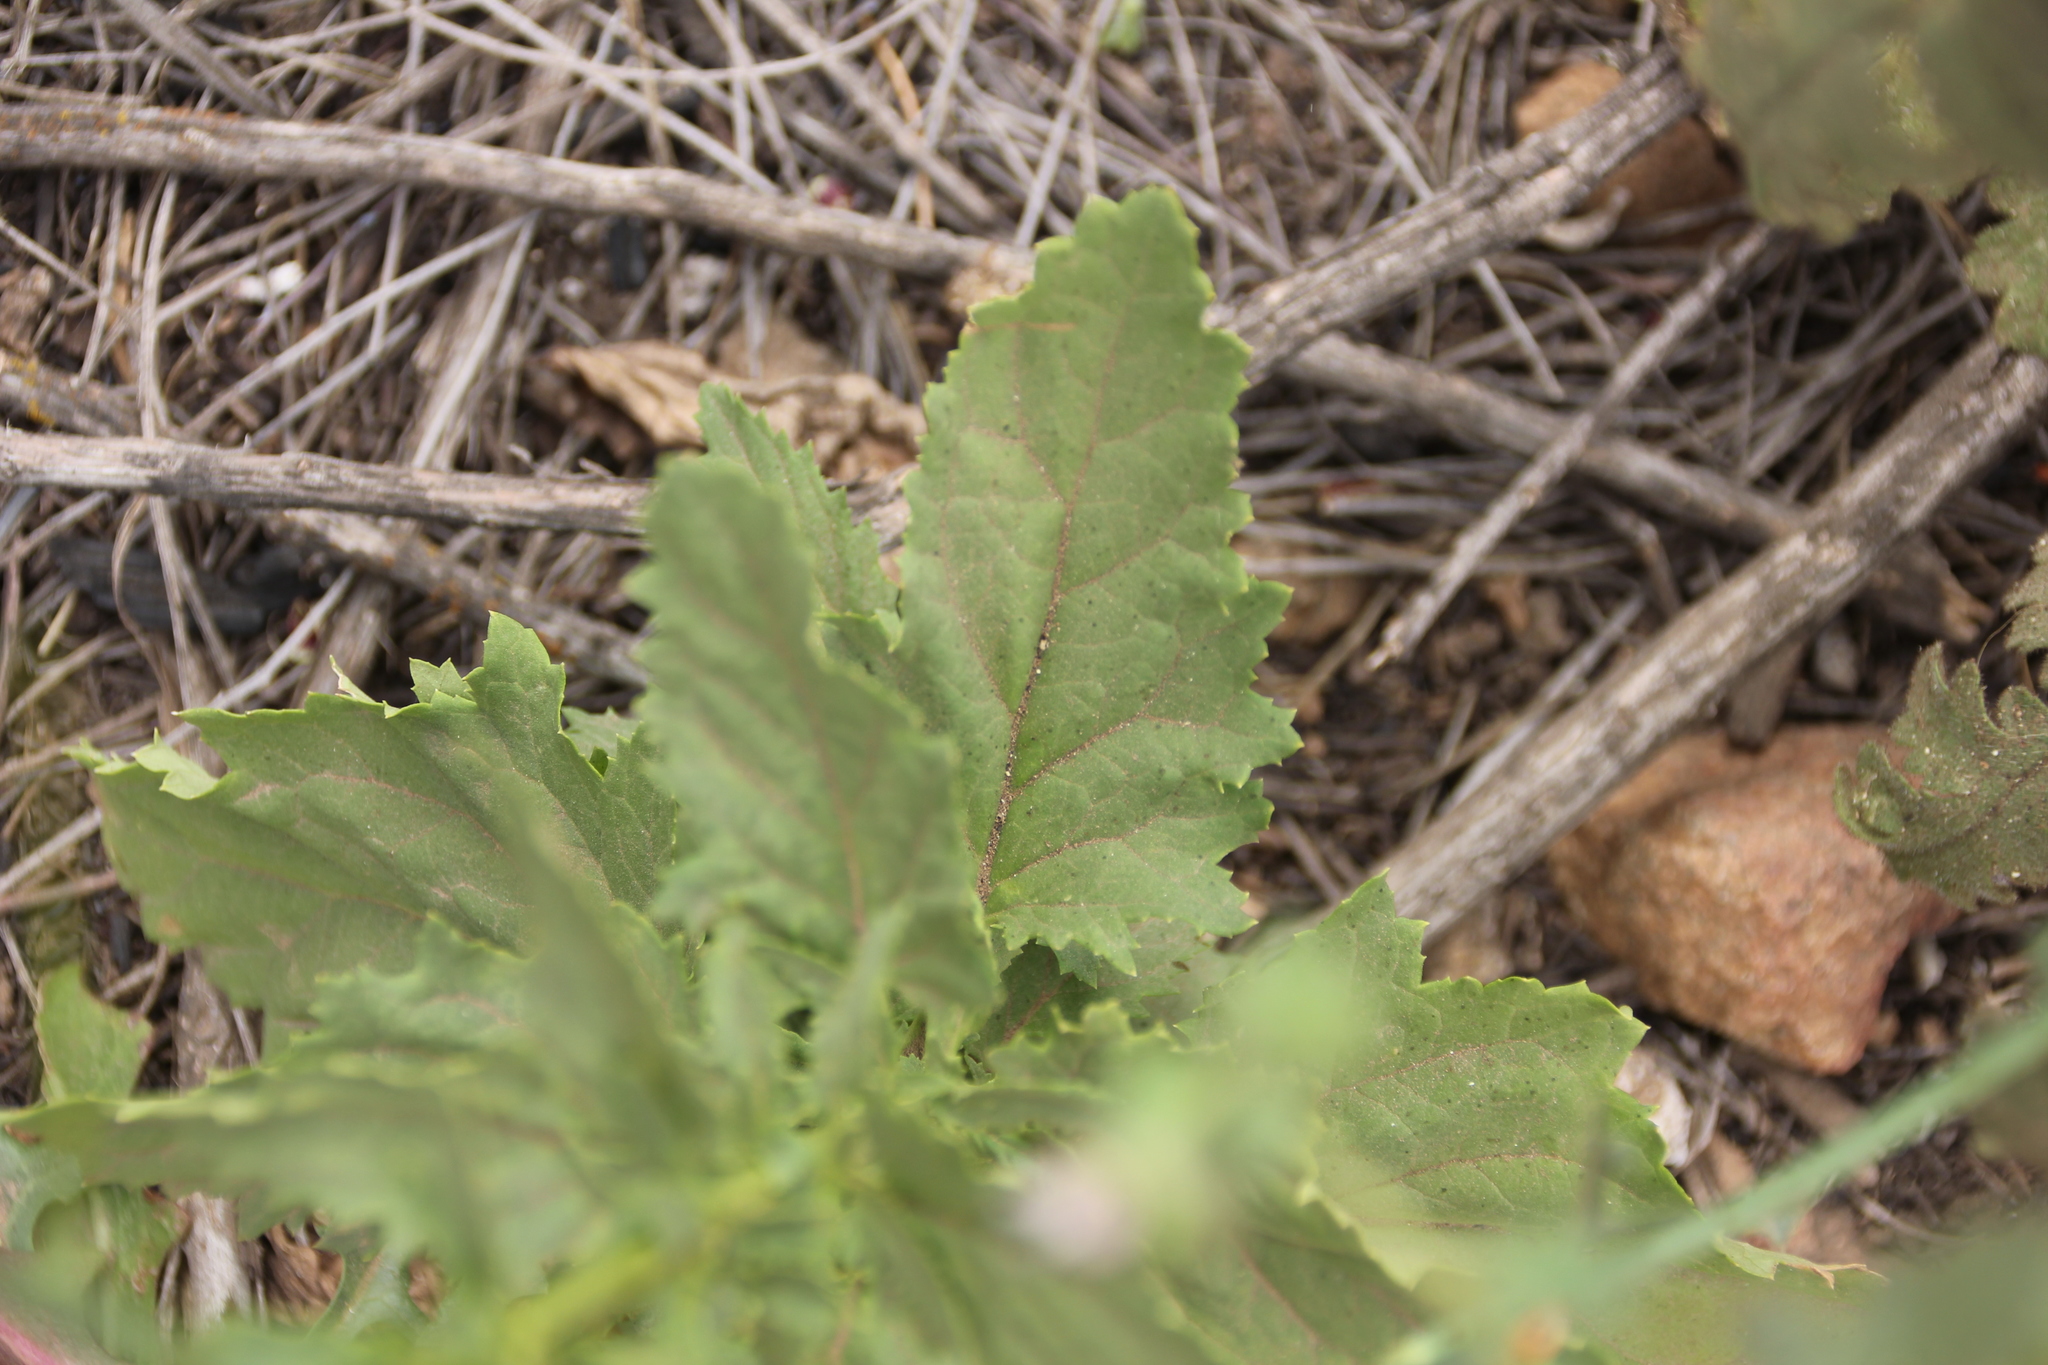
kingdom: Plantae
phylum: Tracheophyta
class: Magnoliopsida
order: Lamiales
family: Scrophulariaceae
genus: Scrophularia
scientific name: Scrophularia californica
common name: California figwort
